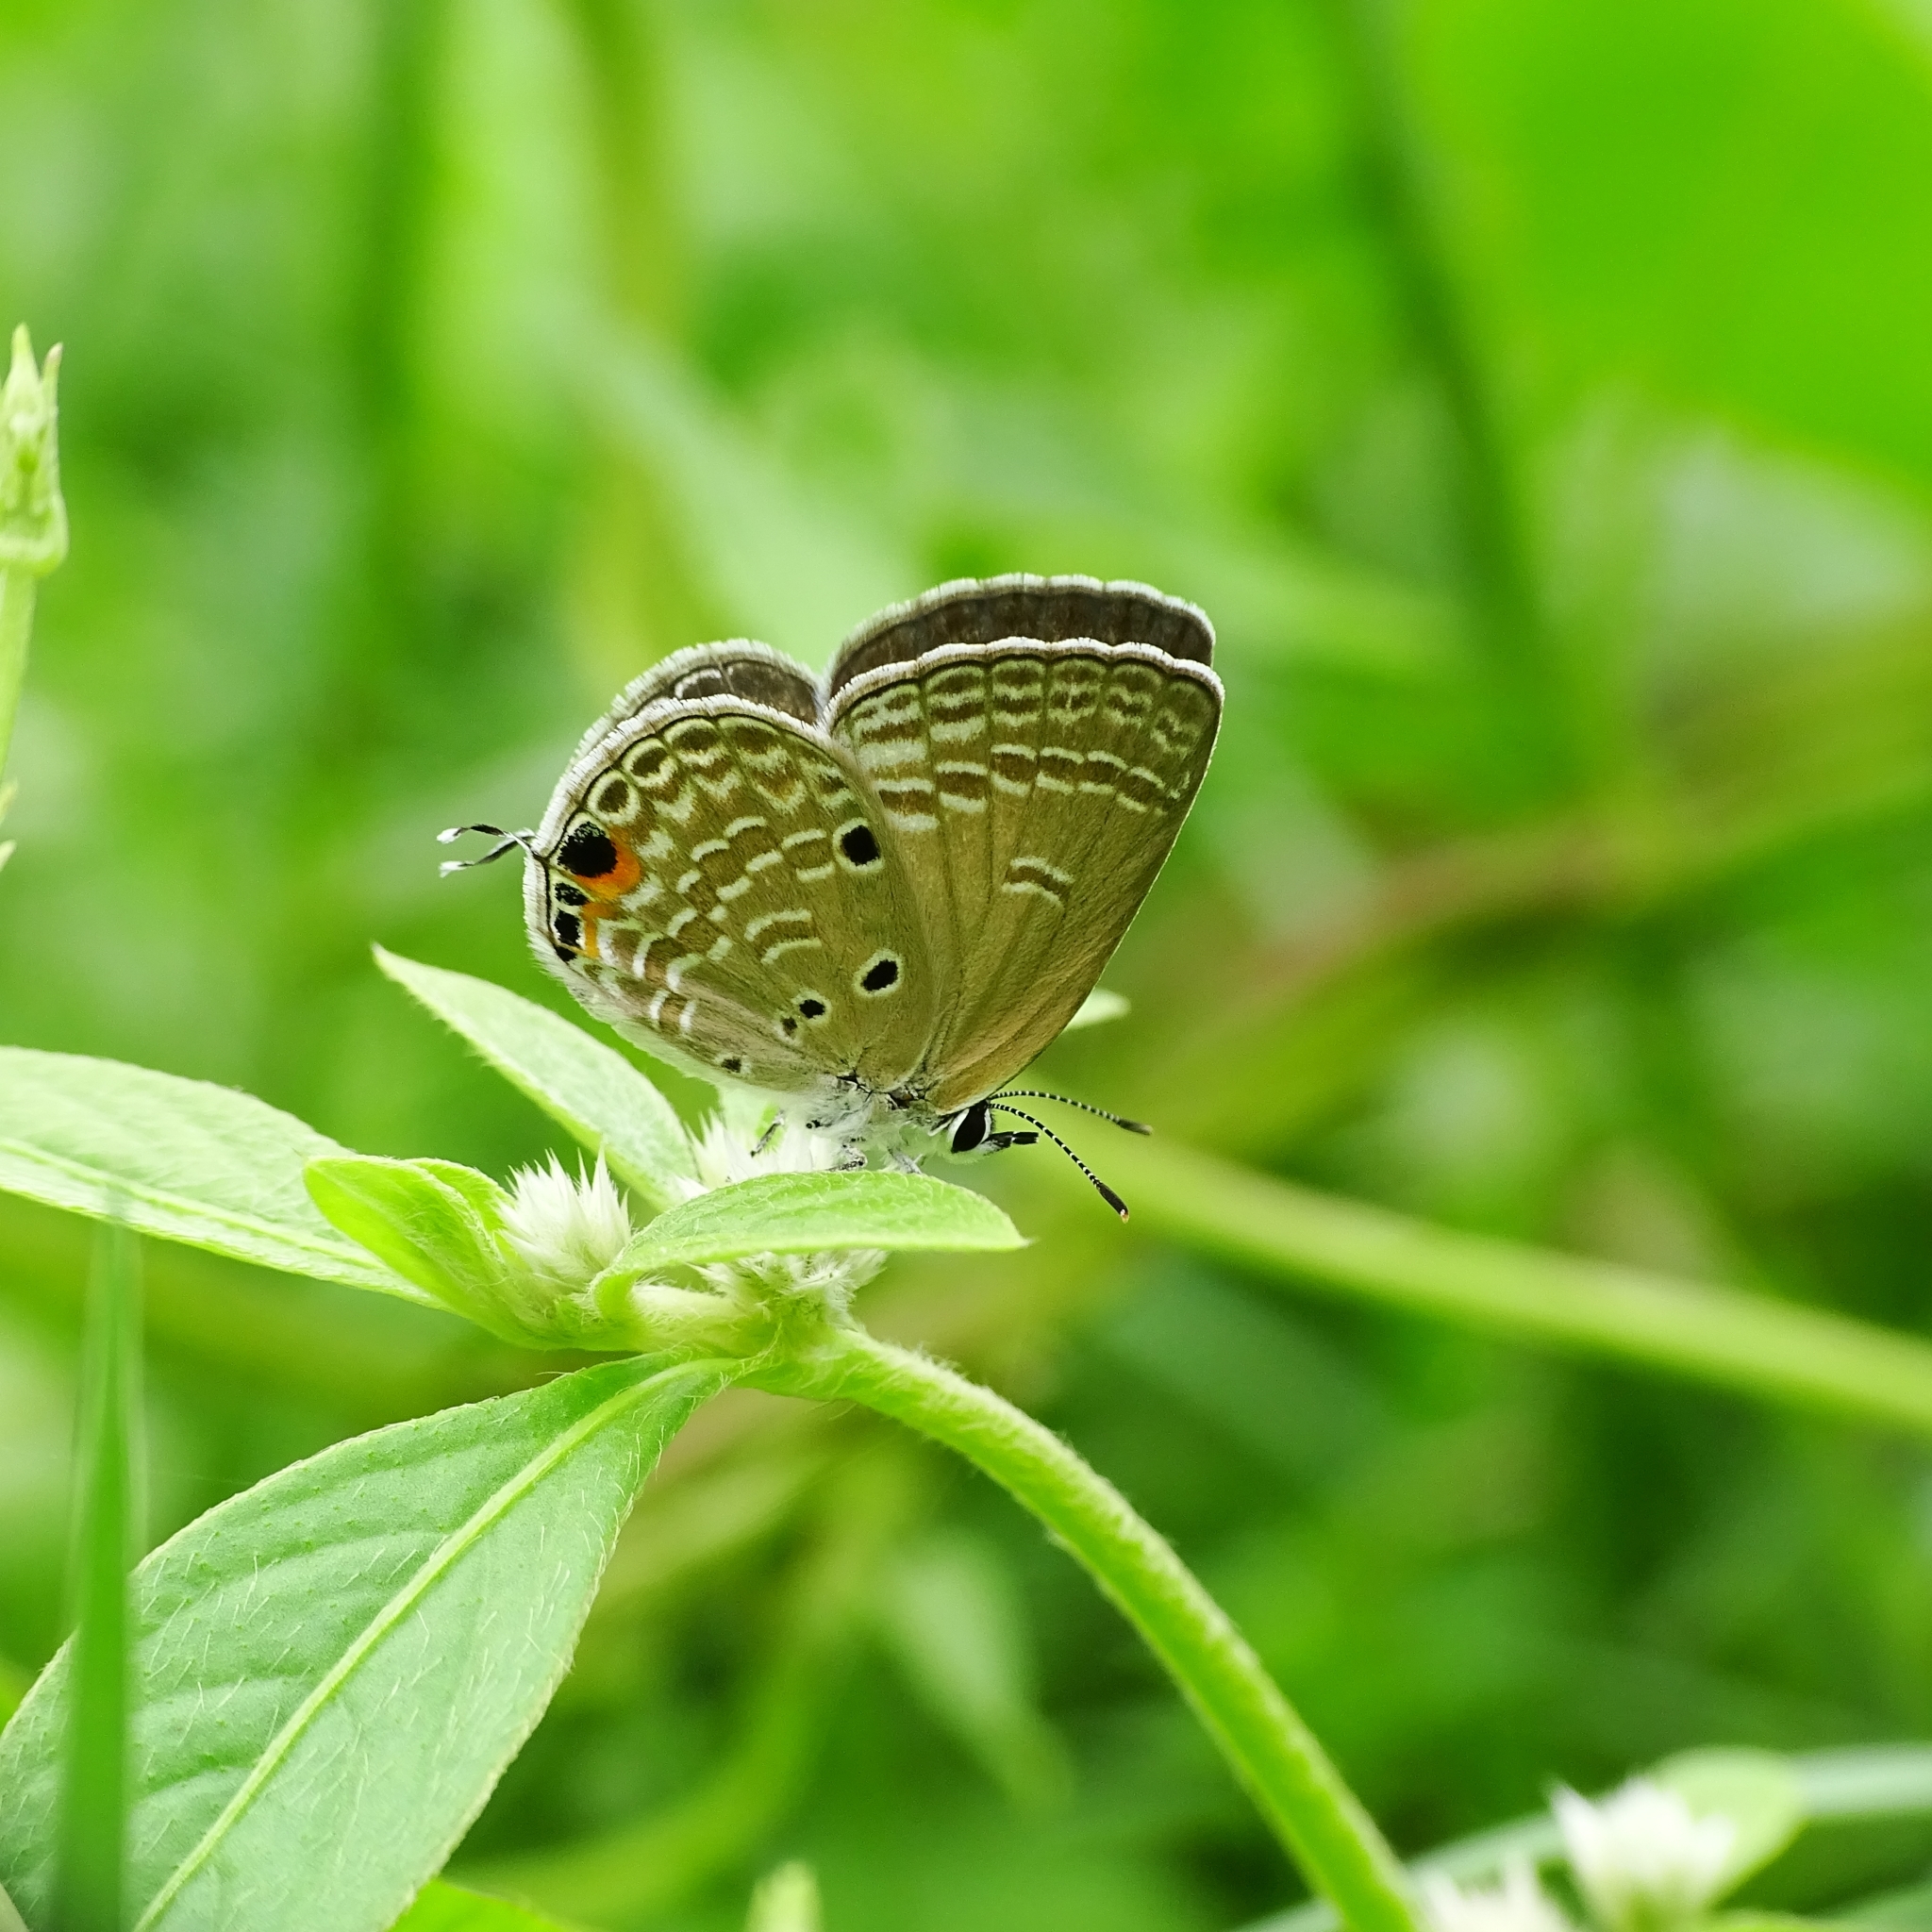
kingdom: Animalia
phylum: Arthropoda
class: Insecta
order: Lepidoptera
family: Lycaenidae
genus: Luthrodes
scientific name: Luthrodes pandava
